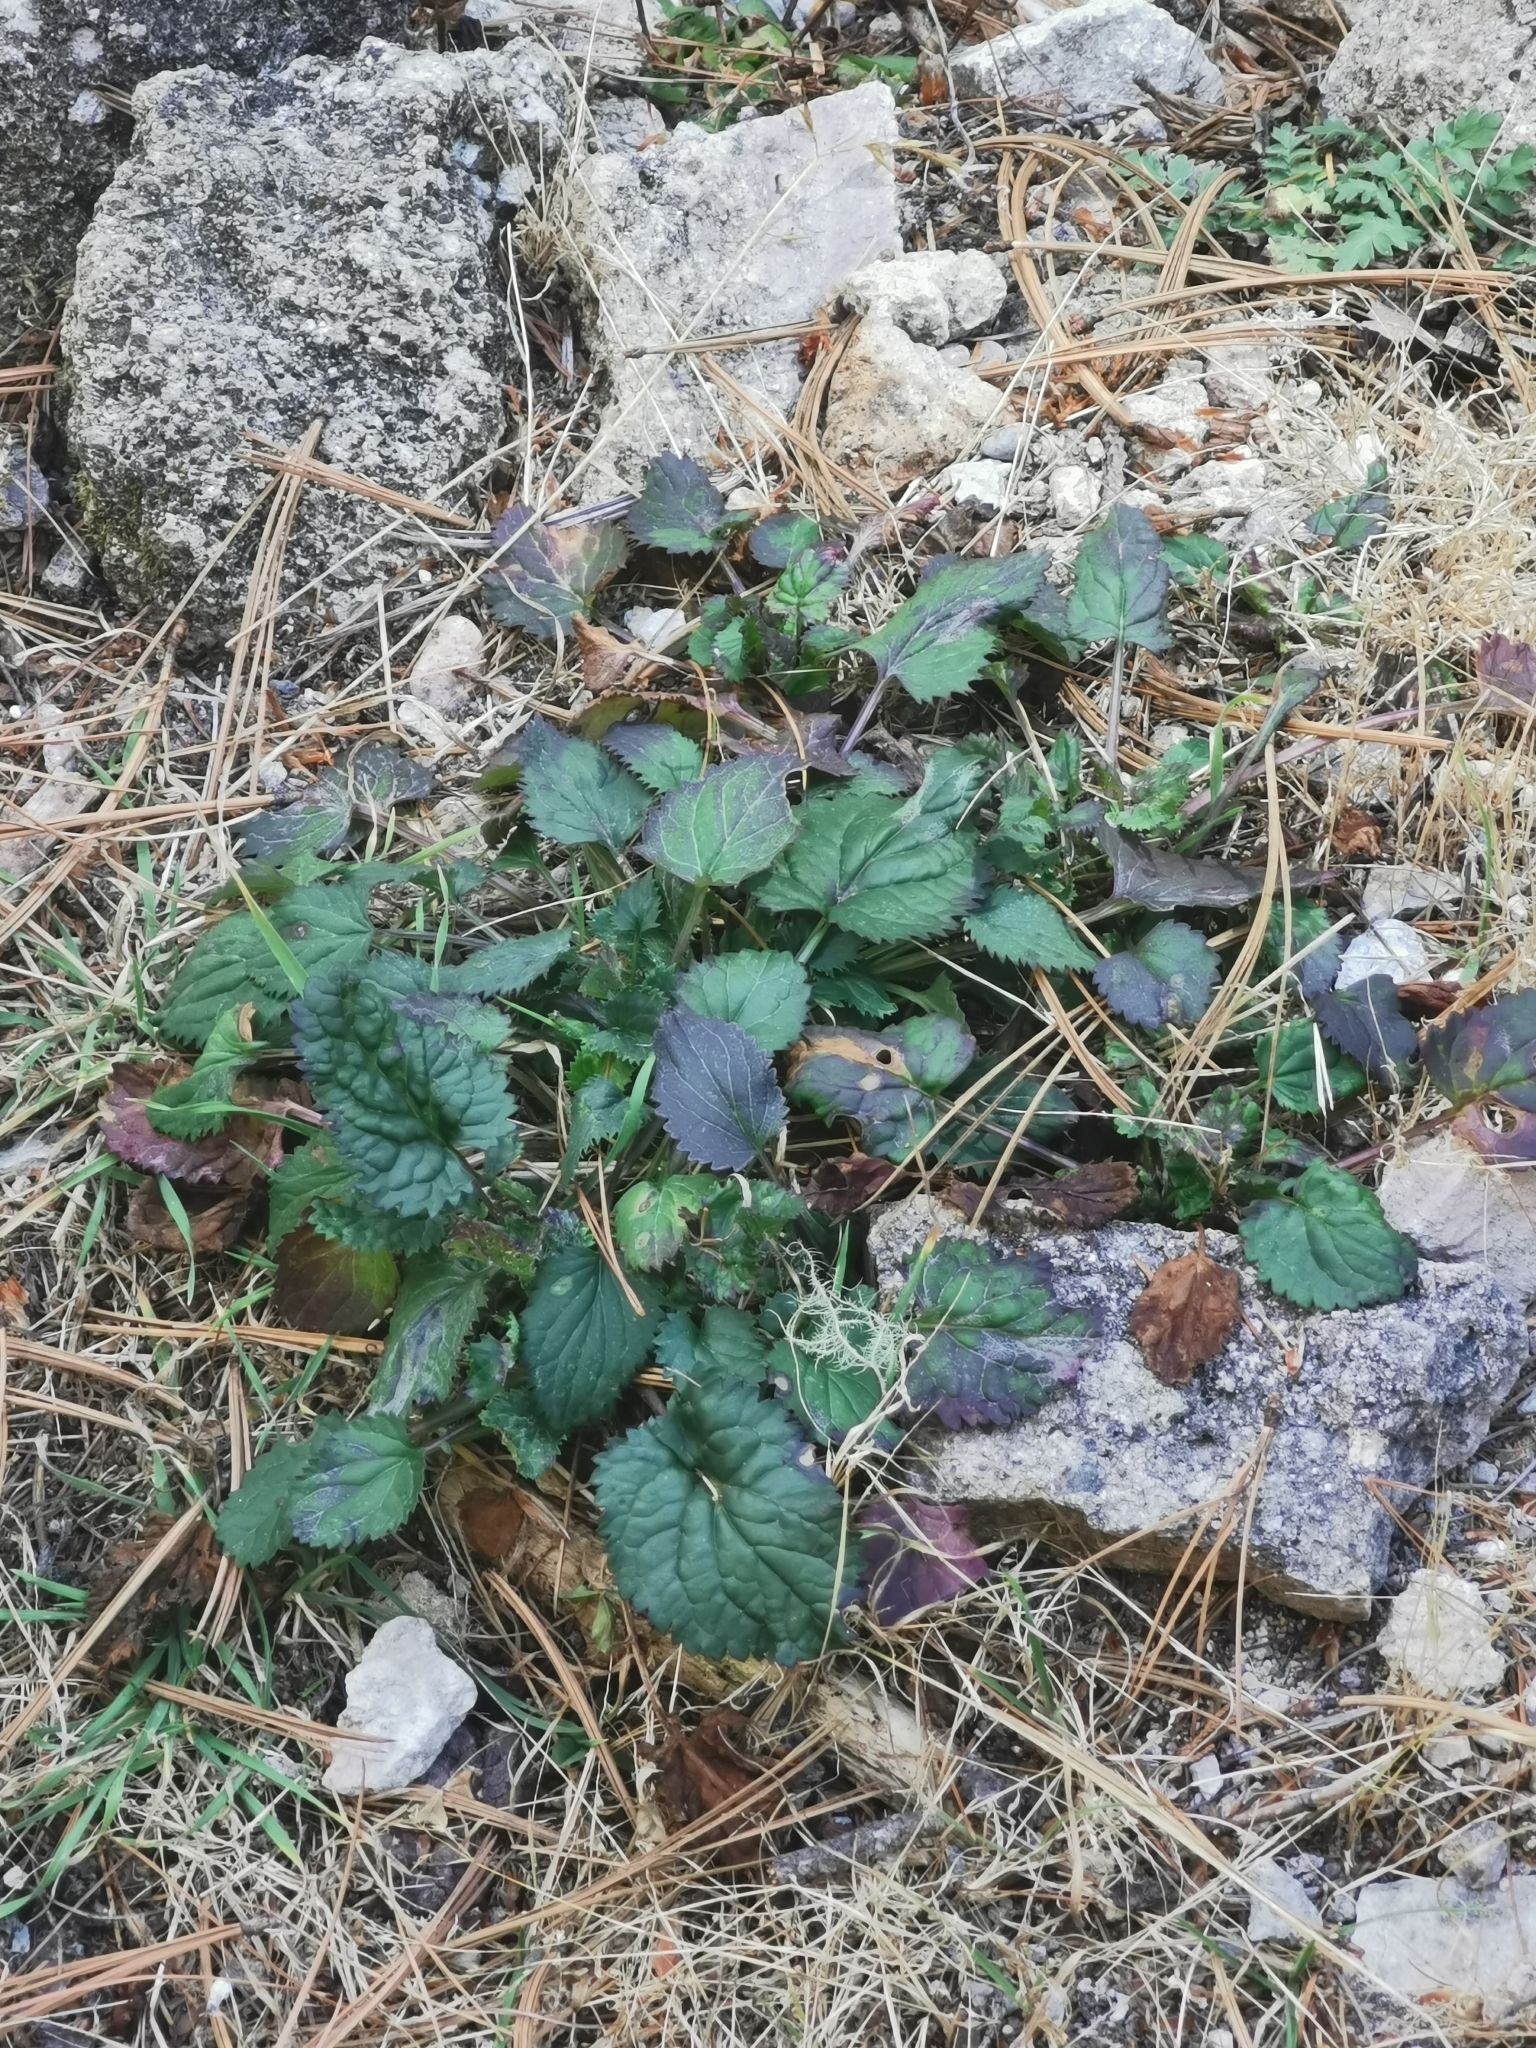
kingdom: Plantae
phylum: Tracheophyta
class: Magnoliopsida
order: Asterales
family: Asteraceae
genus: Packera
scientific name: Packera quebradensis
